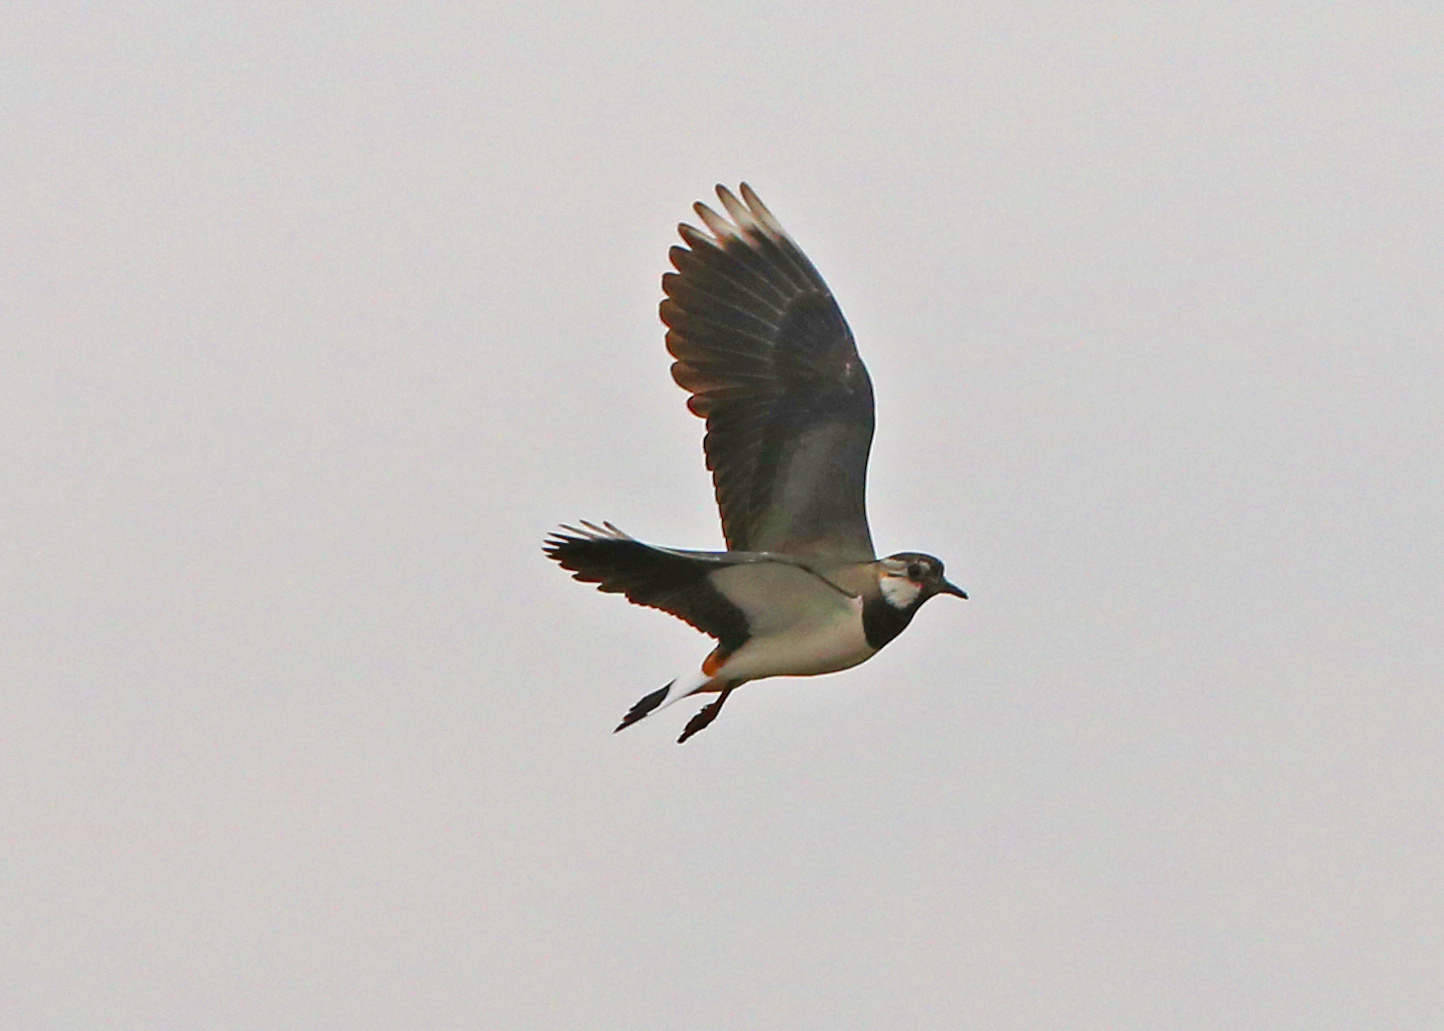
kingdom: Animalia
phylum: Chordata
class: Aves
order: Charadriiformes
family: Charadriidae
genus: Vanellus
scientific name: Vanellus vanellus
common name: Northern lapwing
